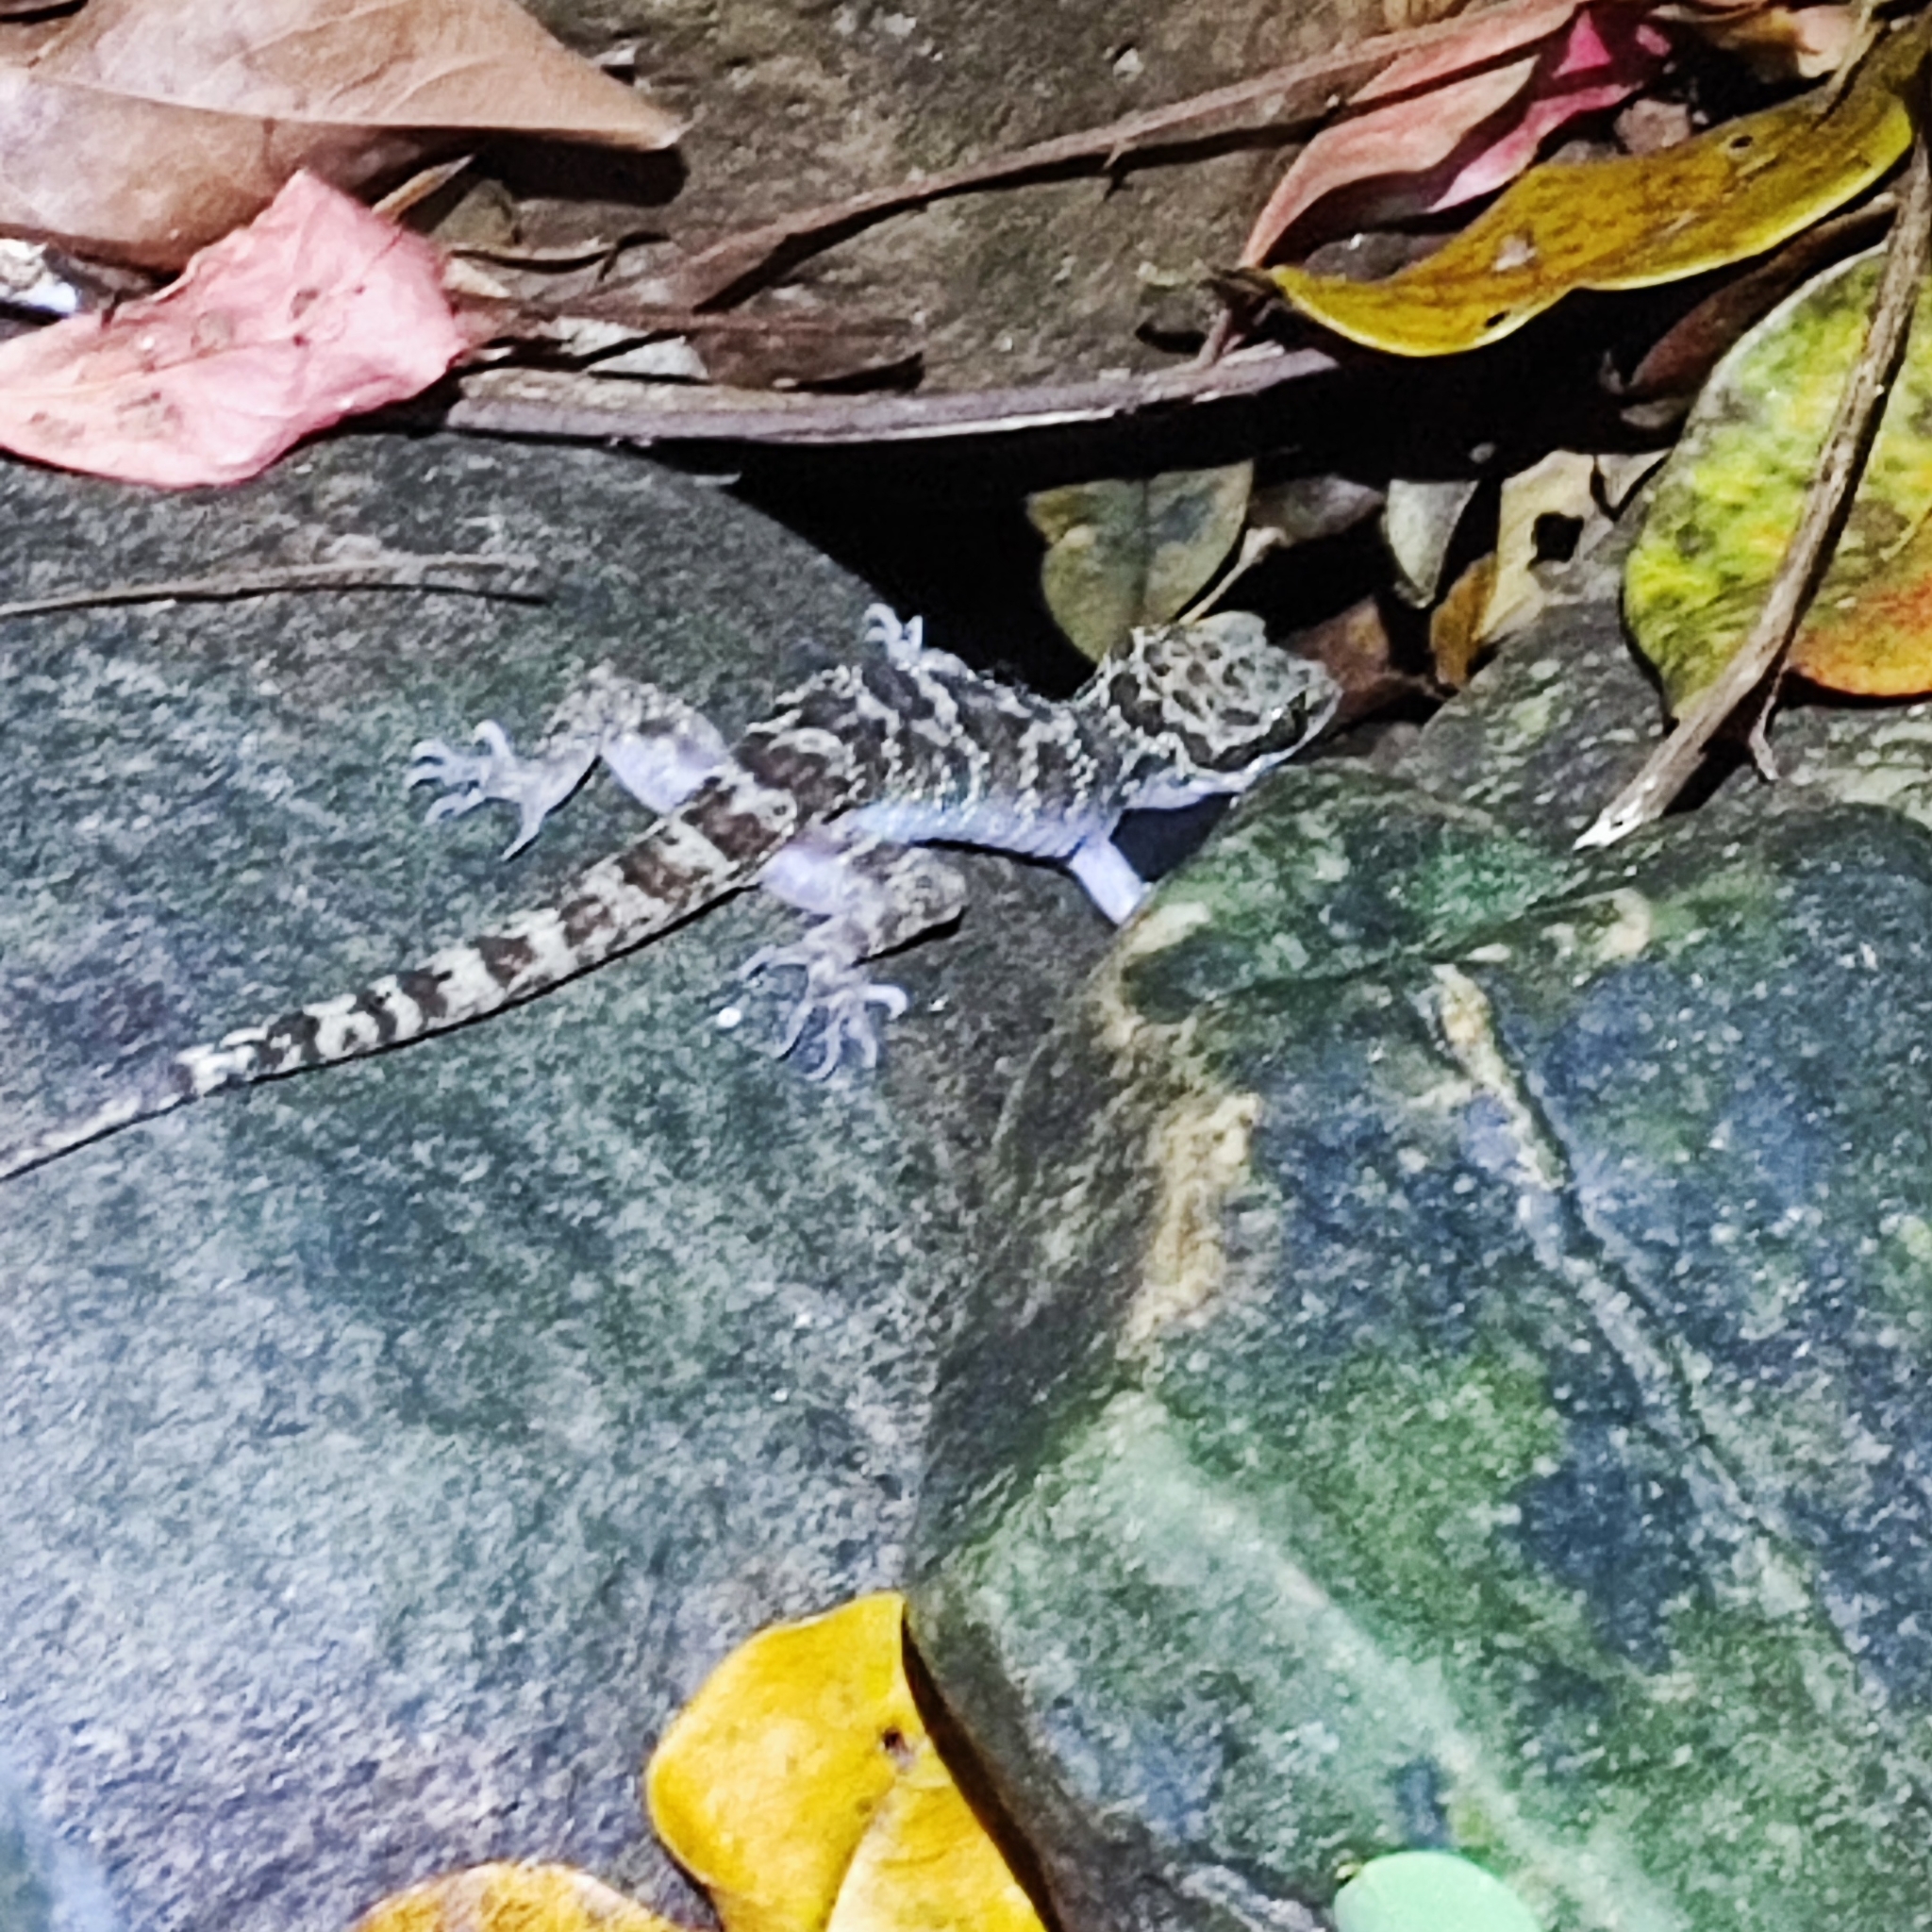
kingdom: Animalia
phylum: Chordata
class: Squamata
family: Gekkonidae
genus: Cyrtodactylus
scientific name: Cyrtodactylus condorensis
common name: Pulo condore bow-fingered gecko
